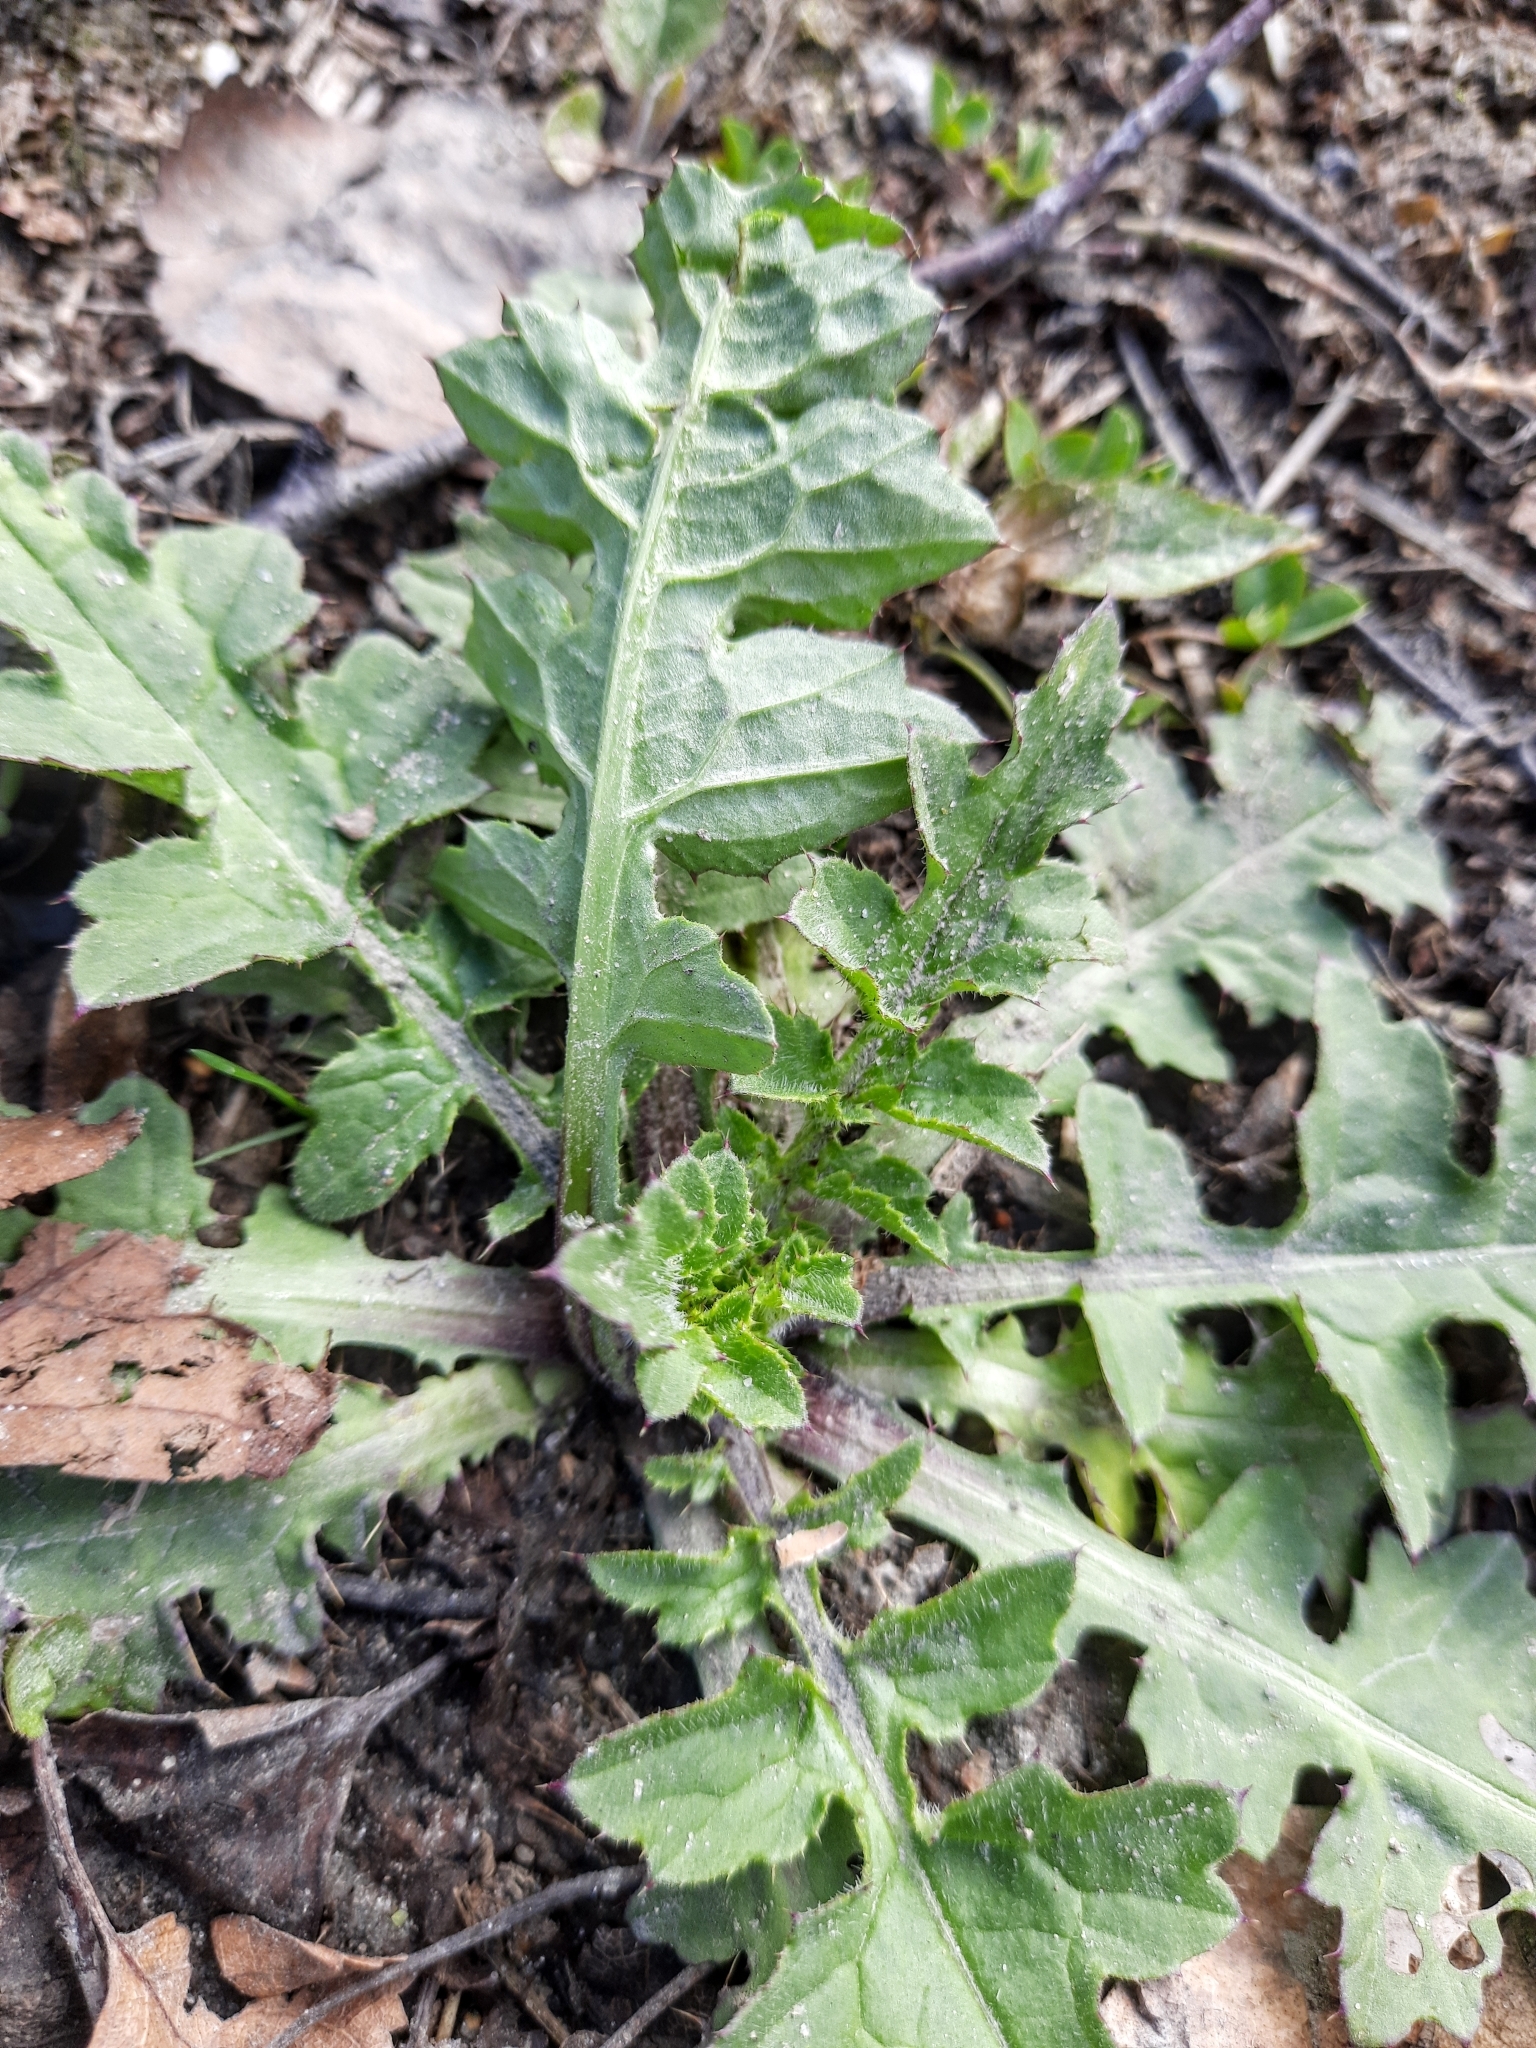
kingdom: Plantae
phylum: Tracheophyta
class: Magnoliopsida
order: Asterales
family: Asteraceae
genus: Carduus
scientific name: Carduus crispus
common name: Welted thistle
